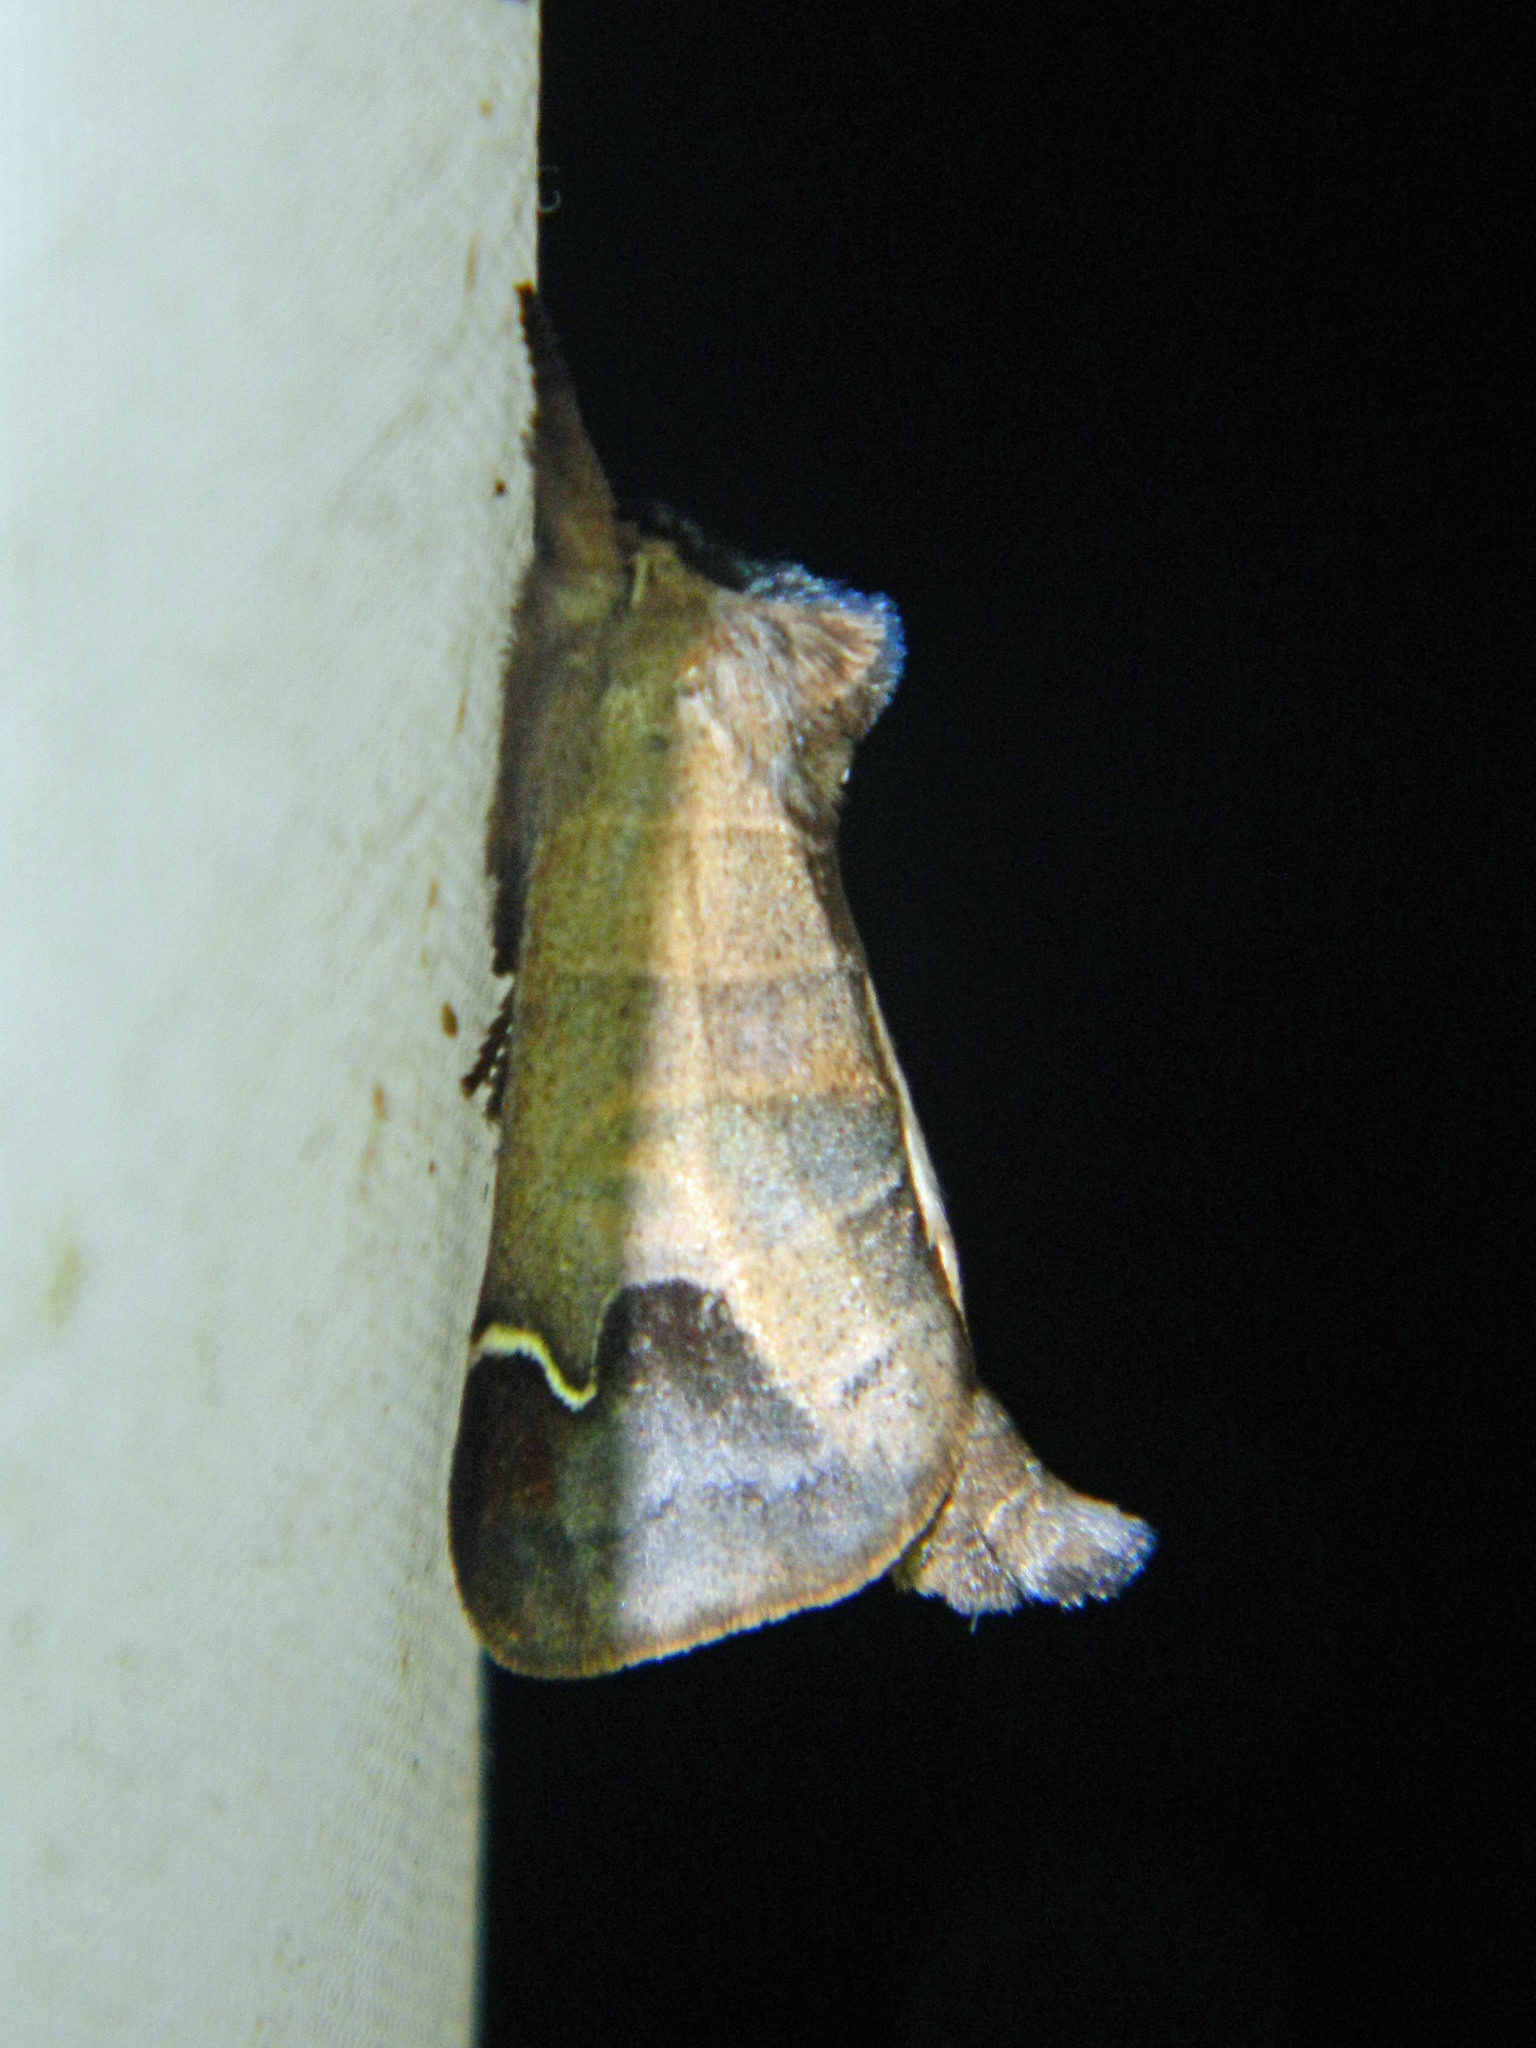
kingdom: Animalia
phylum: Arthropoda
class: Insecta
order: Lepidoptera
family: Notodontidae
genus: Clostera
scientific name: Clostera albosigma
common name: Sigmoid prominent
